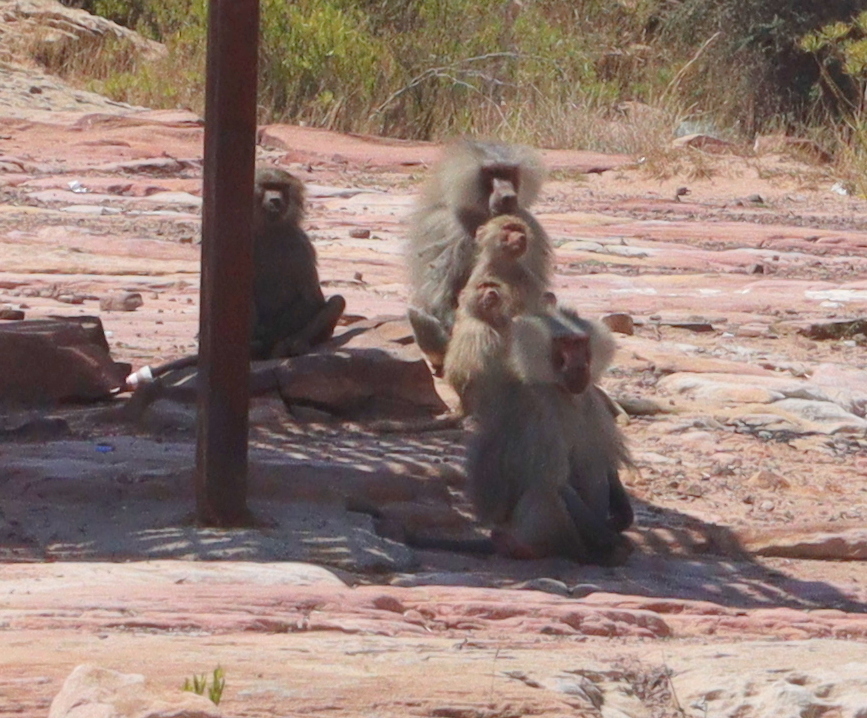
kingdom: Animalia
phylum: Chordata
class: Mammalia
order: Primates
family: Cercopithecidae
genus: Papio
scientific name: Papio hamadryas
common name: Hamadryas baboon
